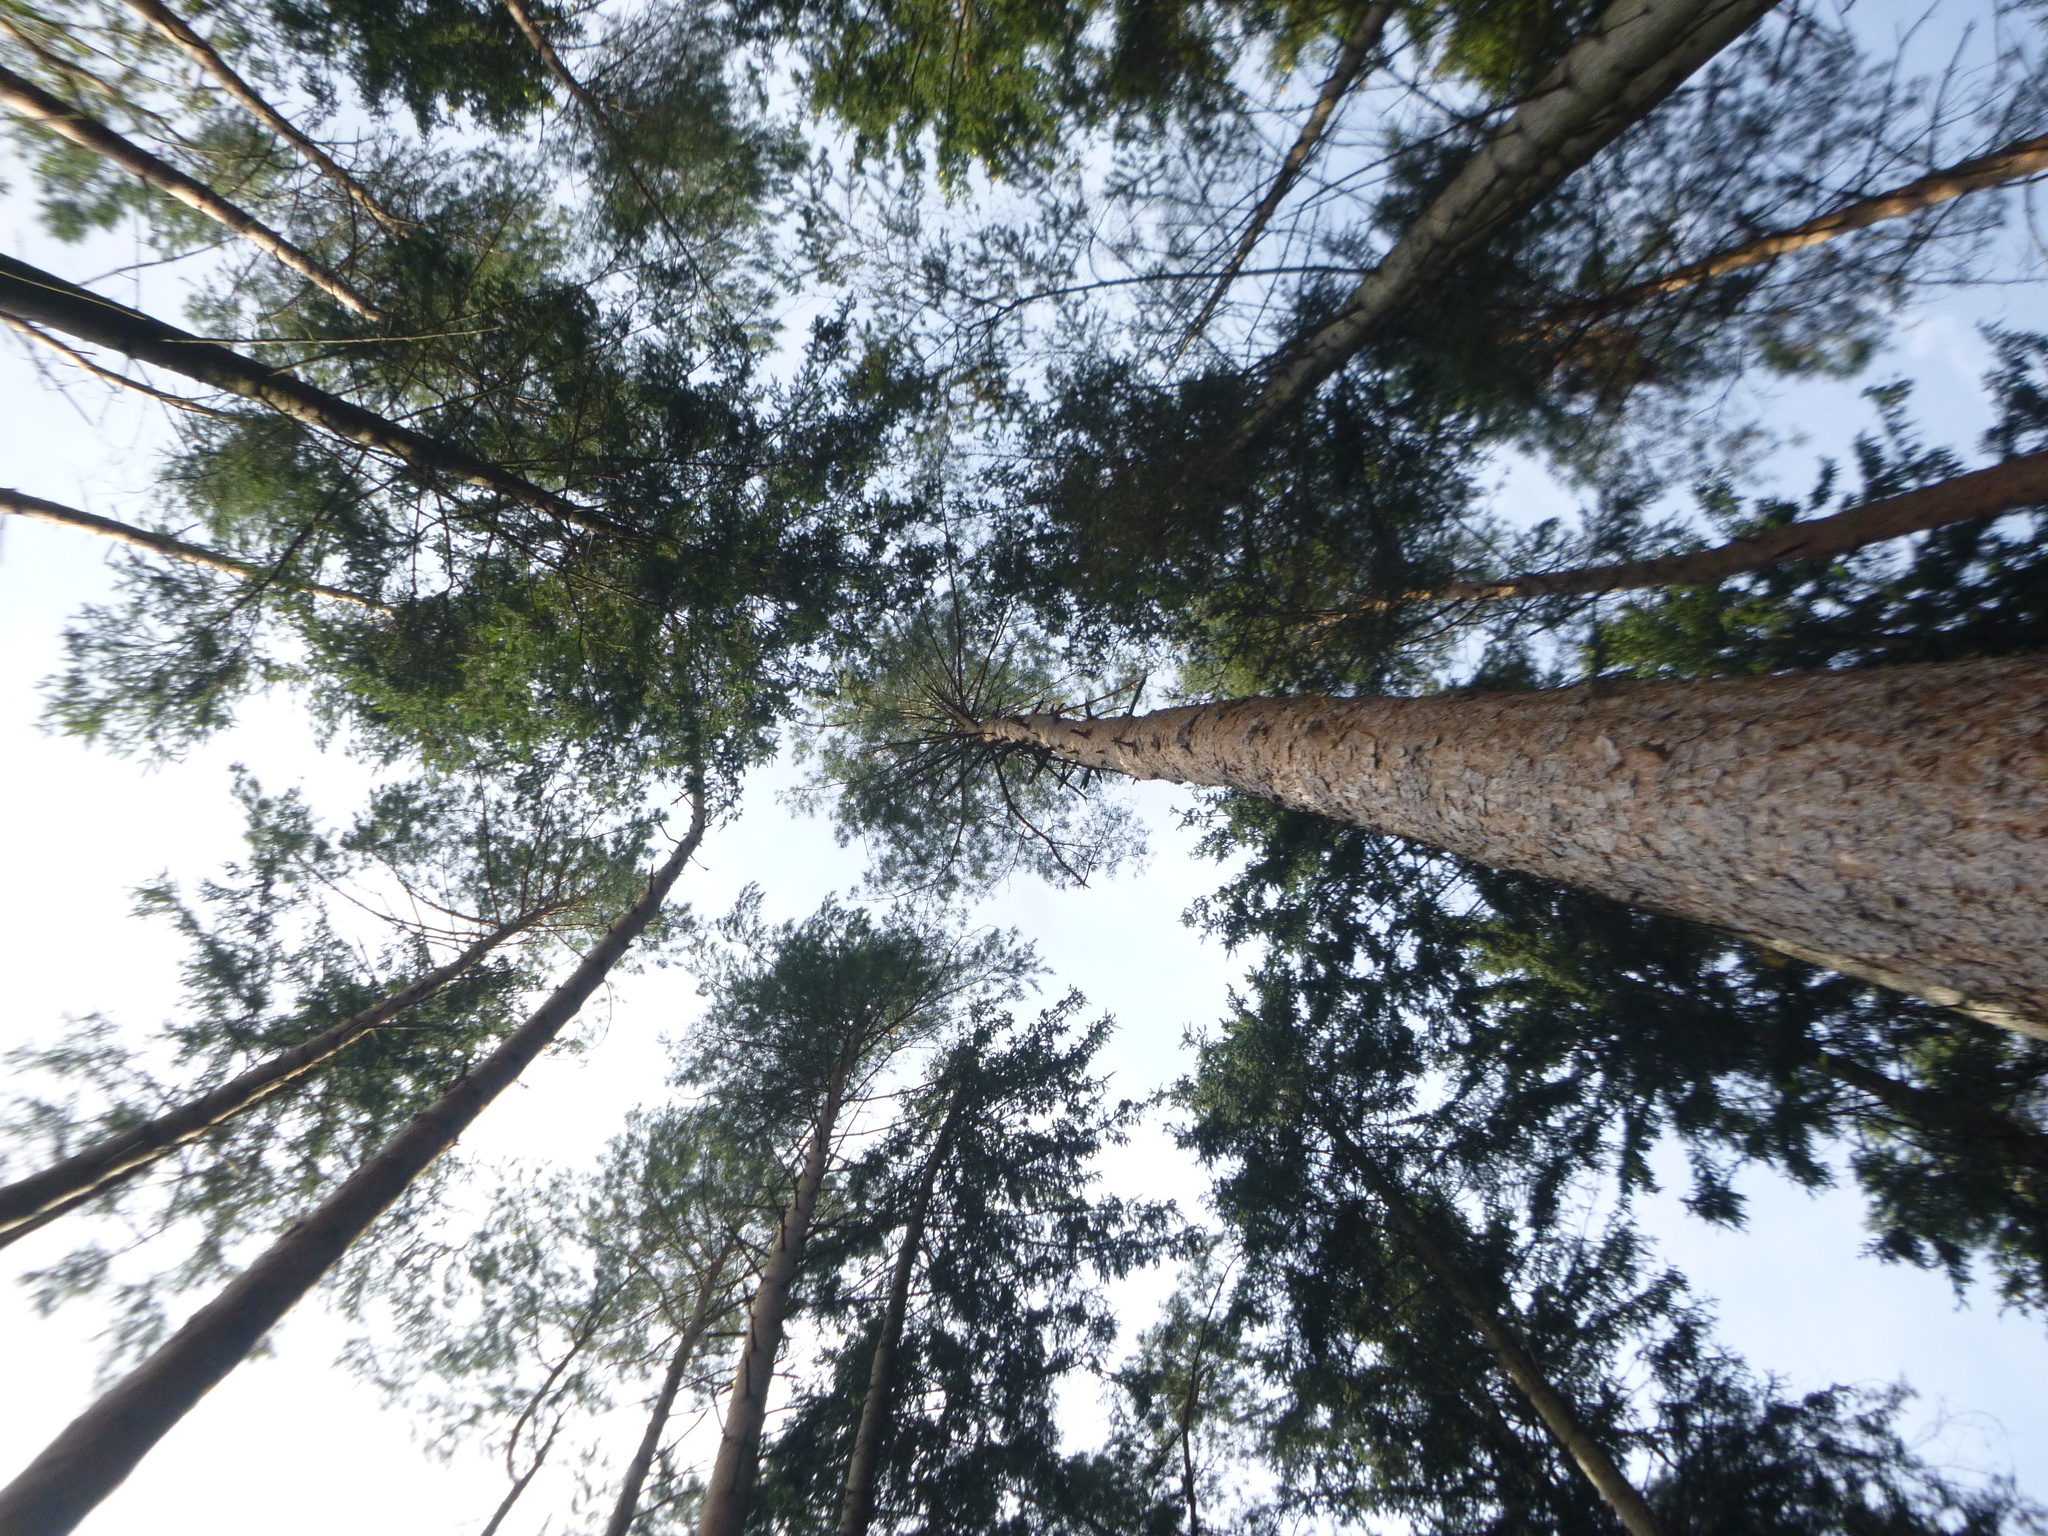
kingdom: Plantae
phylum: Tracheophyta
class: Pinopsida
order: Pinales
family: Pinaceae
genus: Pinus
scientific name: Pinus sylvestris
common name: Scots pine
